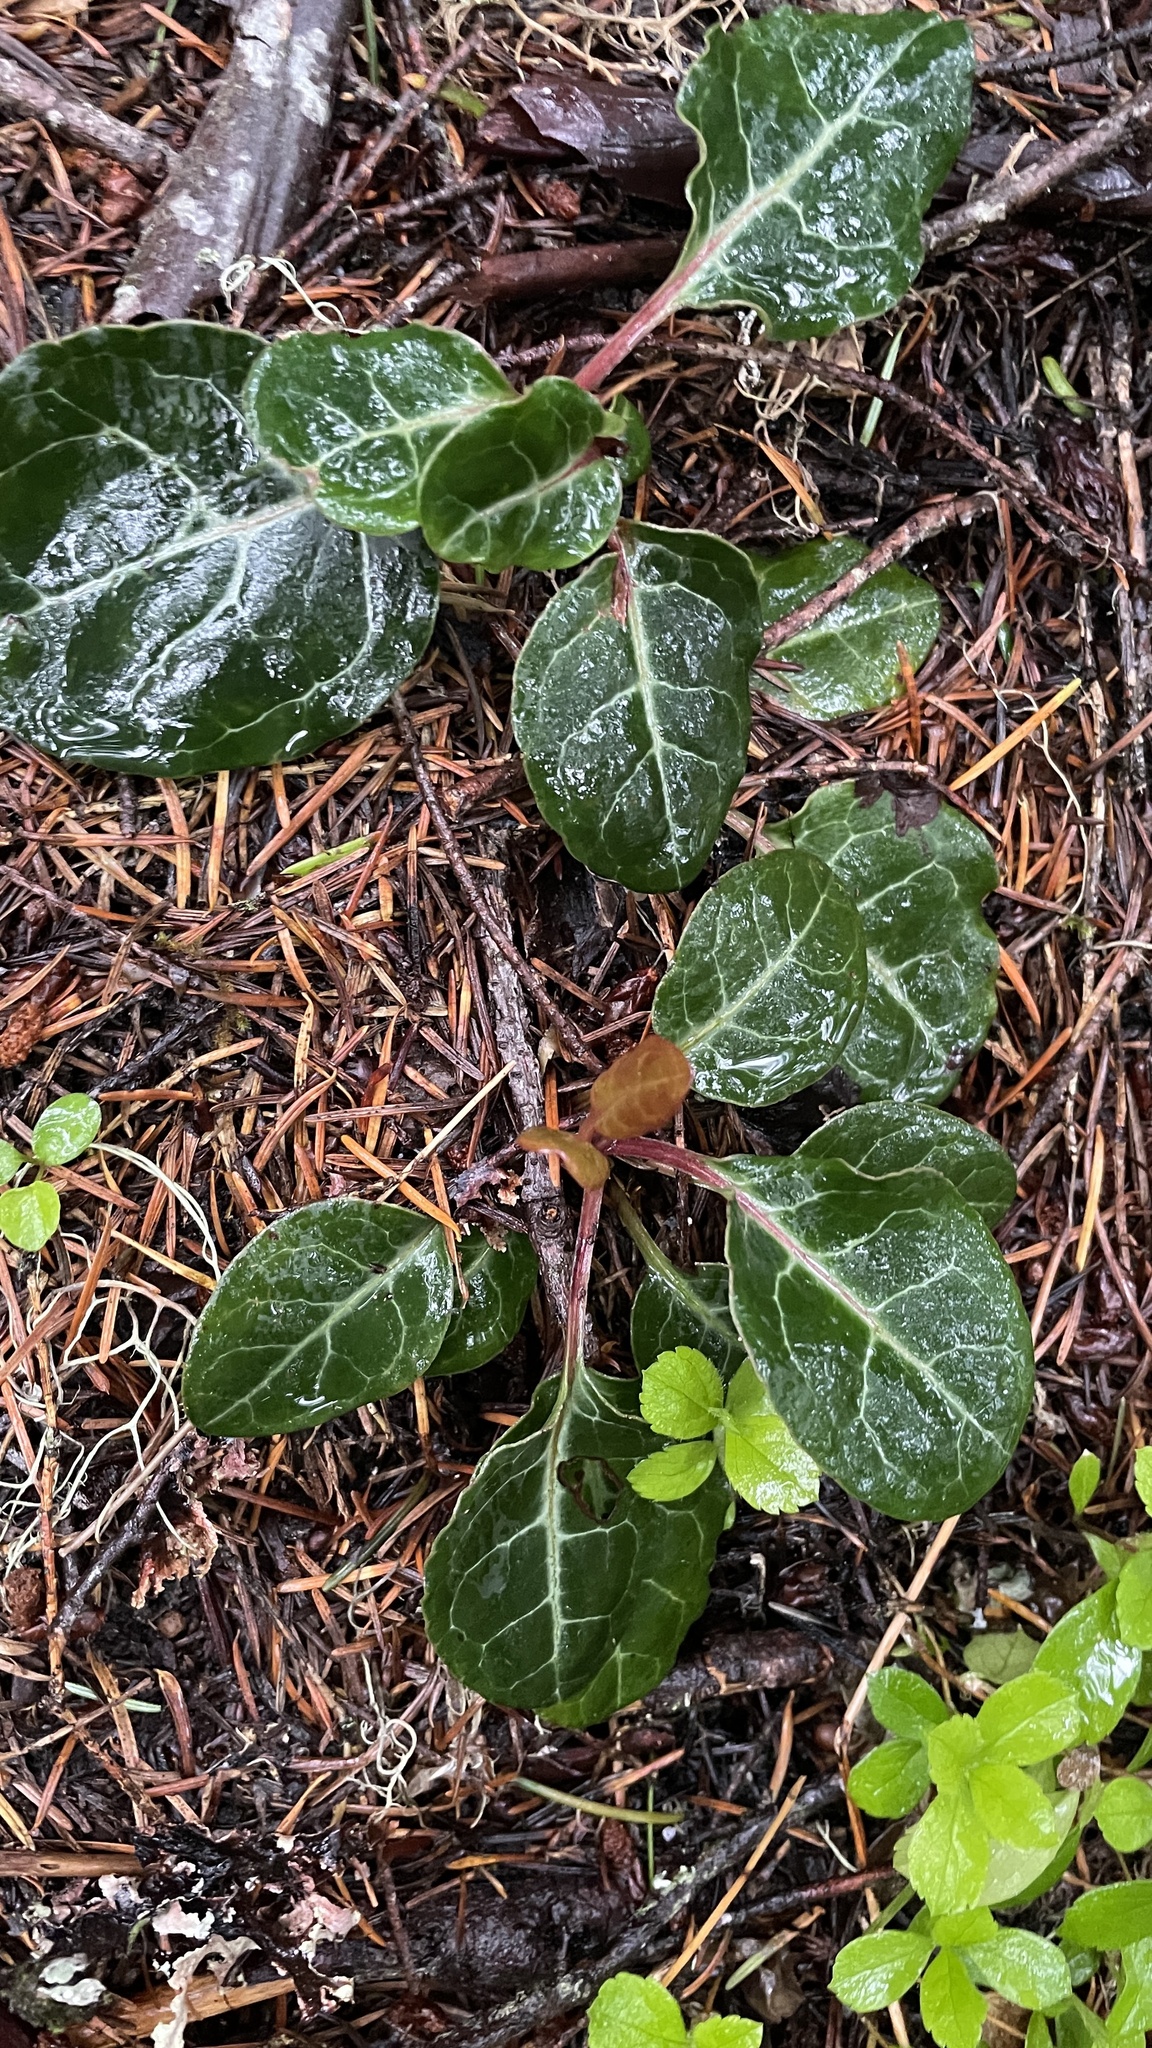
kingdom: Plantae
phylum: Tracheophyta
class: Magnoliopsida
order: Ericales
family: Ericaceae
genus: Pyrola
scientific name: Pyrola picta
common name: White-vein wintergreen
